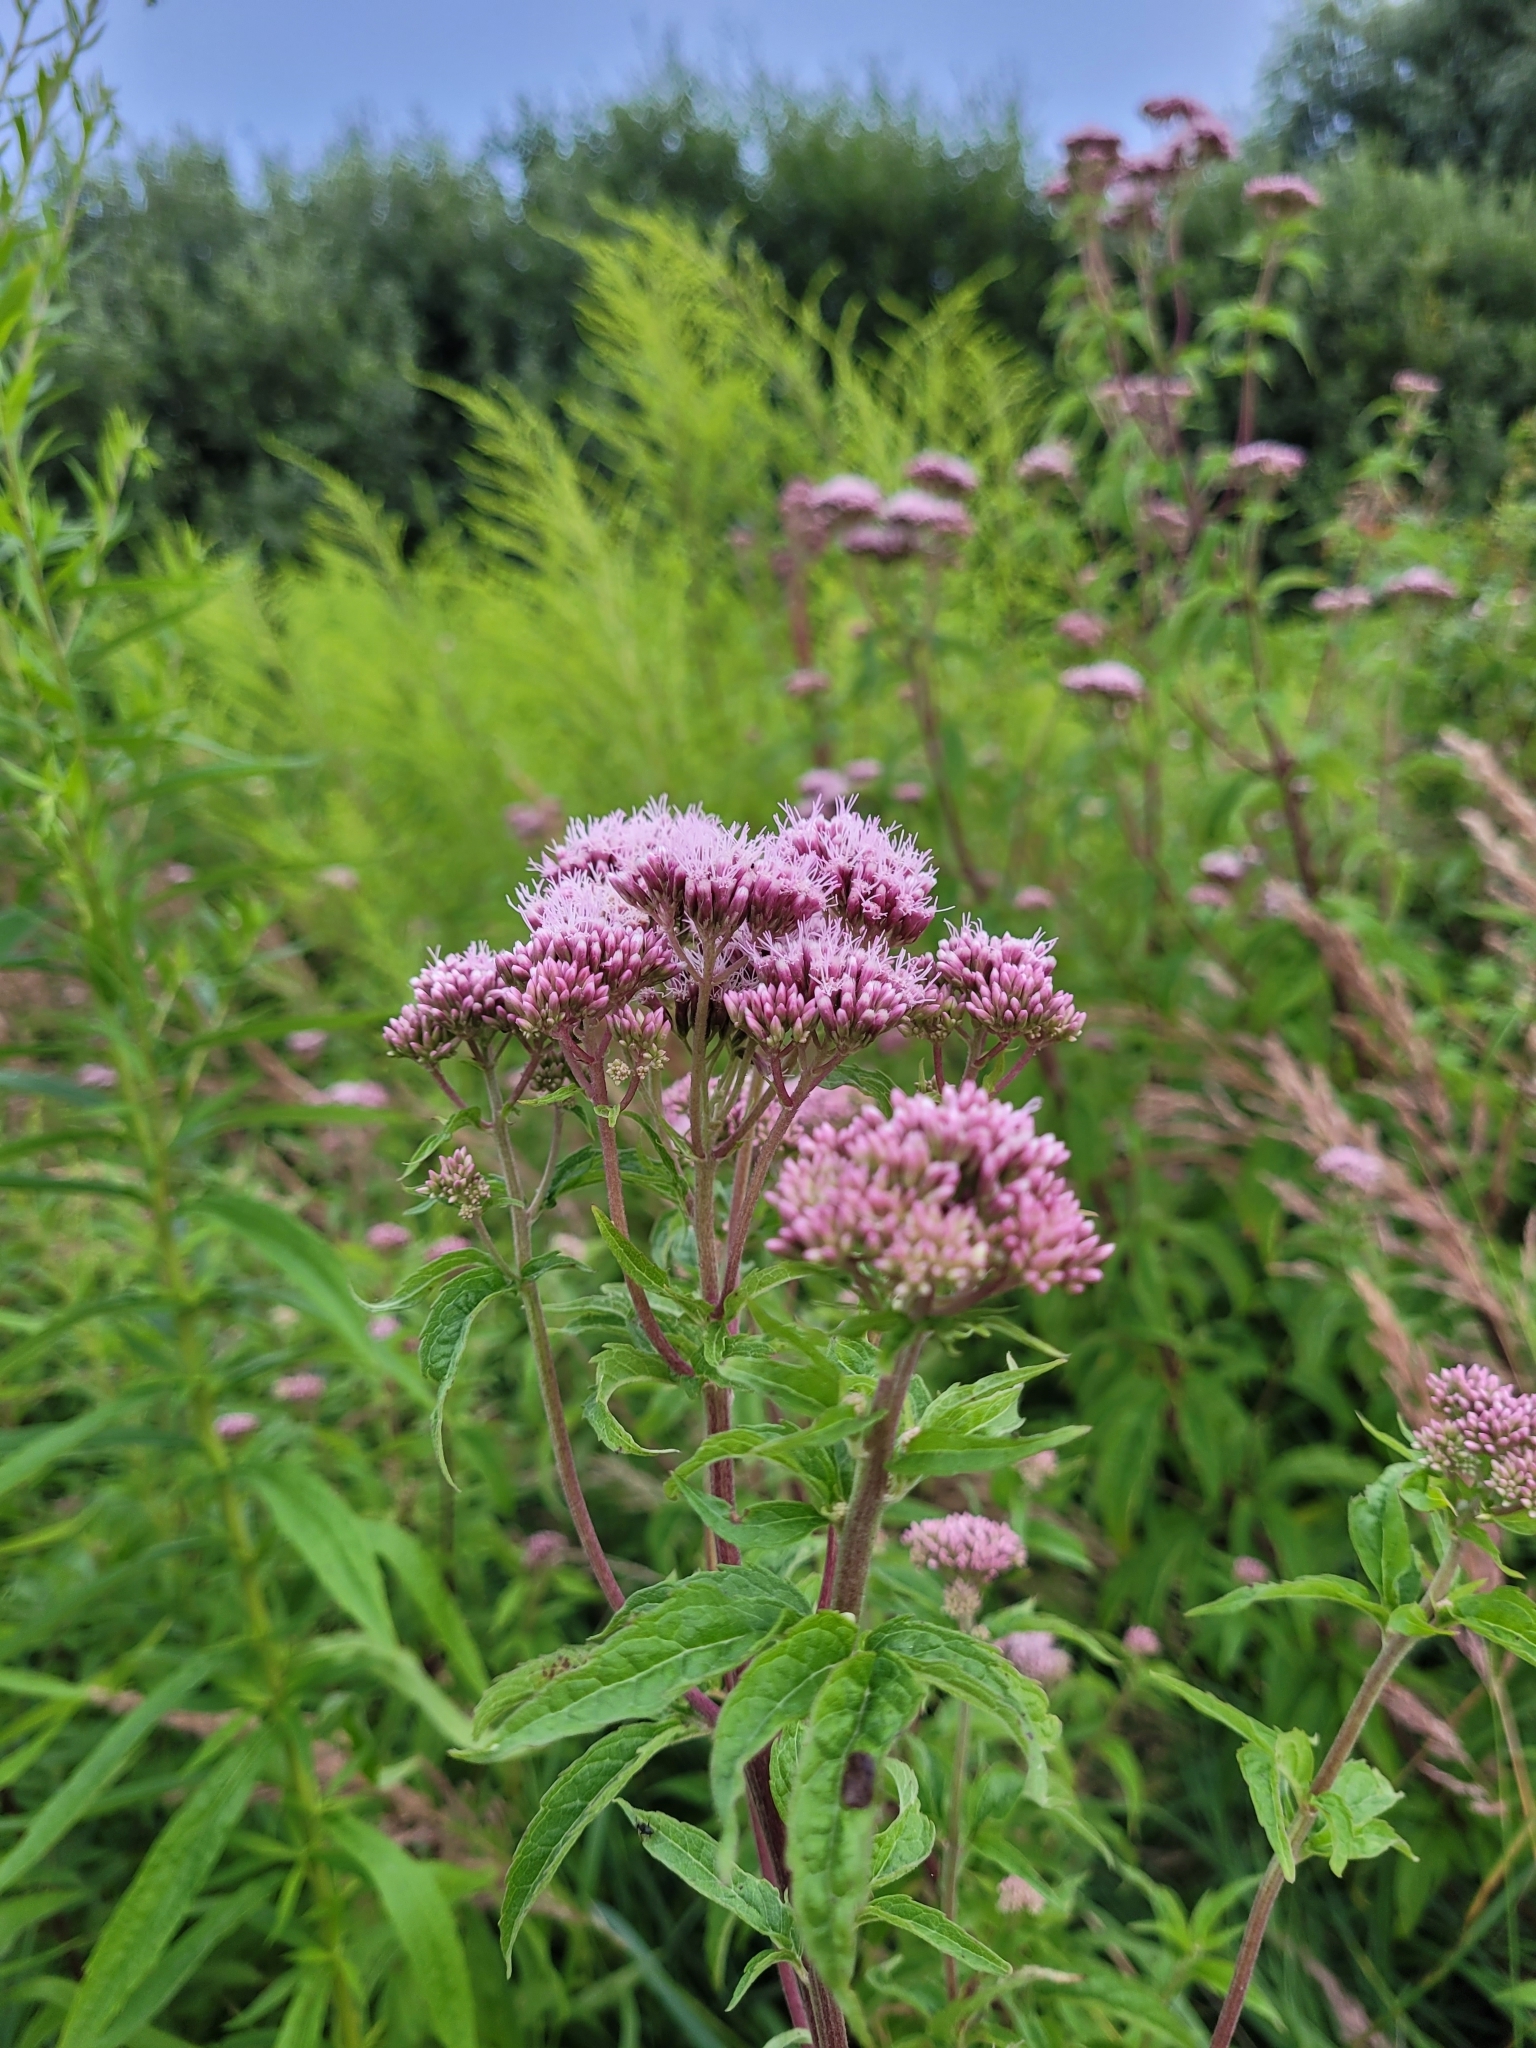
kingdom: Plantae
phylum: Tracheophyta
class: Magnoliopsida
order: Asterales
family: Asteraceae
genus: Eupatorium
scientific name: Eupatorium cannabinum
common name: Hemp-agrimony
